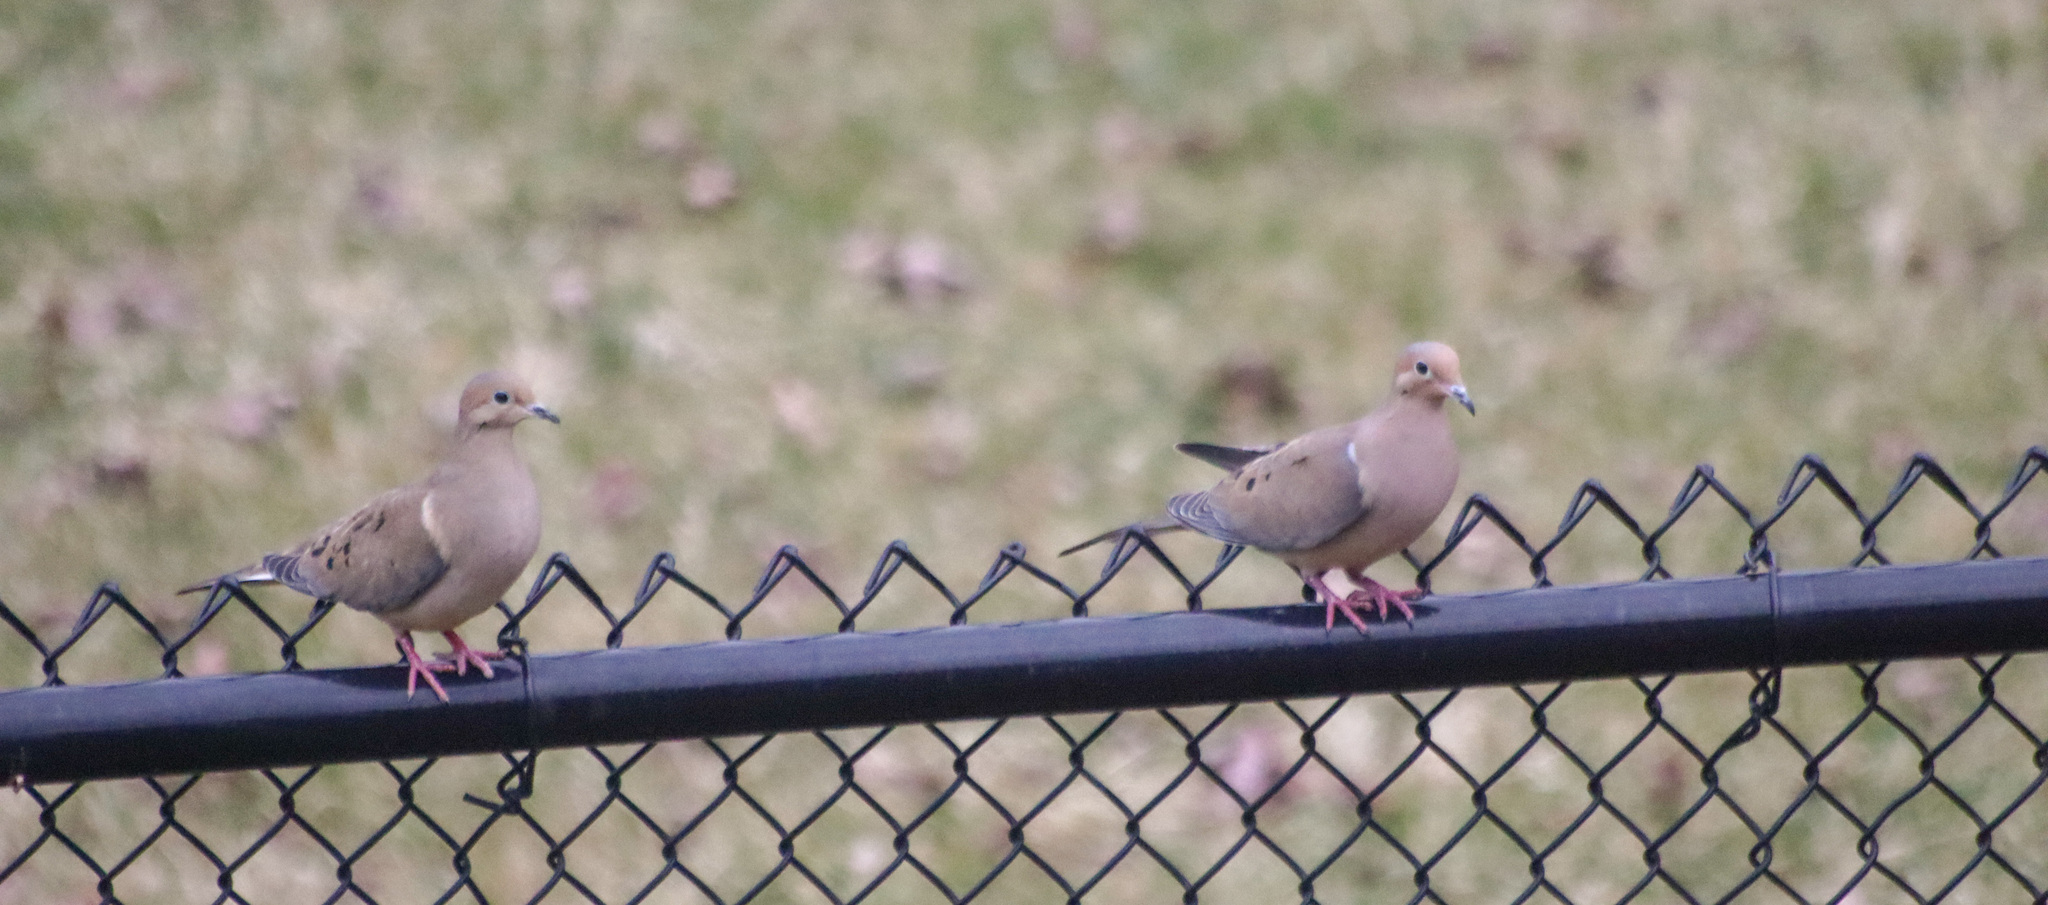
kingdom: Animalia
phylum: Chordata
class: Aves
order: Columbiformes
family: Columbidae
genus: Zenaida
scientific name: Zenaida macroura
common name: Mourning dove
